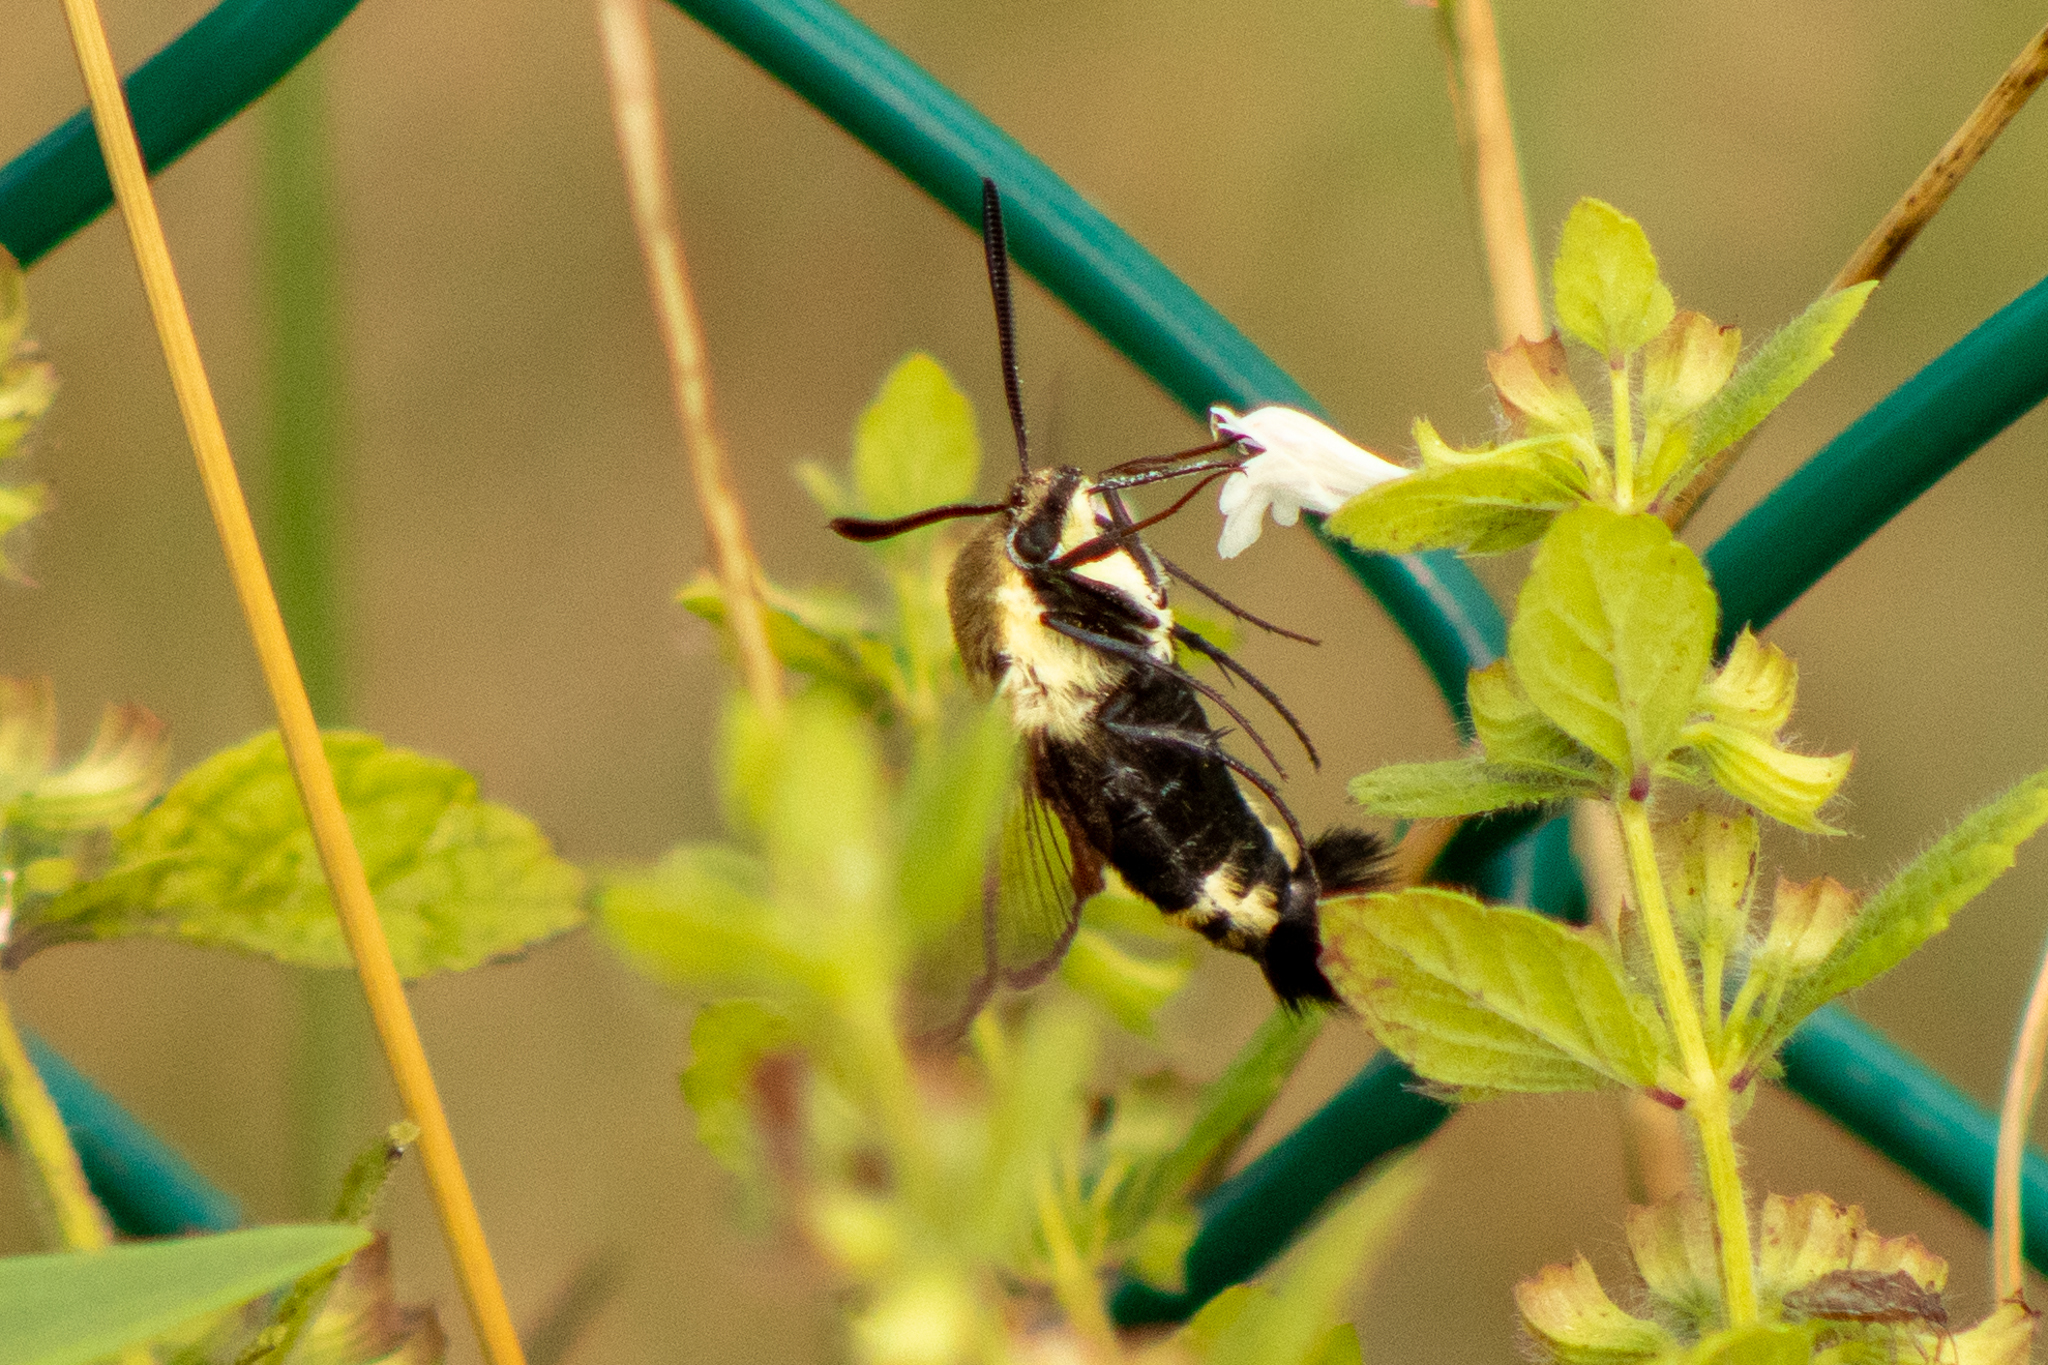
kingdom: Animalia
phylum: Arthropoda
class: Insecta
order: Lepidoptera
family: Sphingidae
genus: Hemaris
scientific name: Hemaris diffinis
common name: Bumblebee moth
